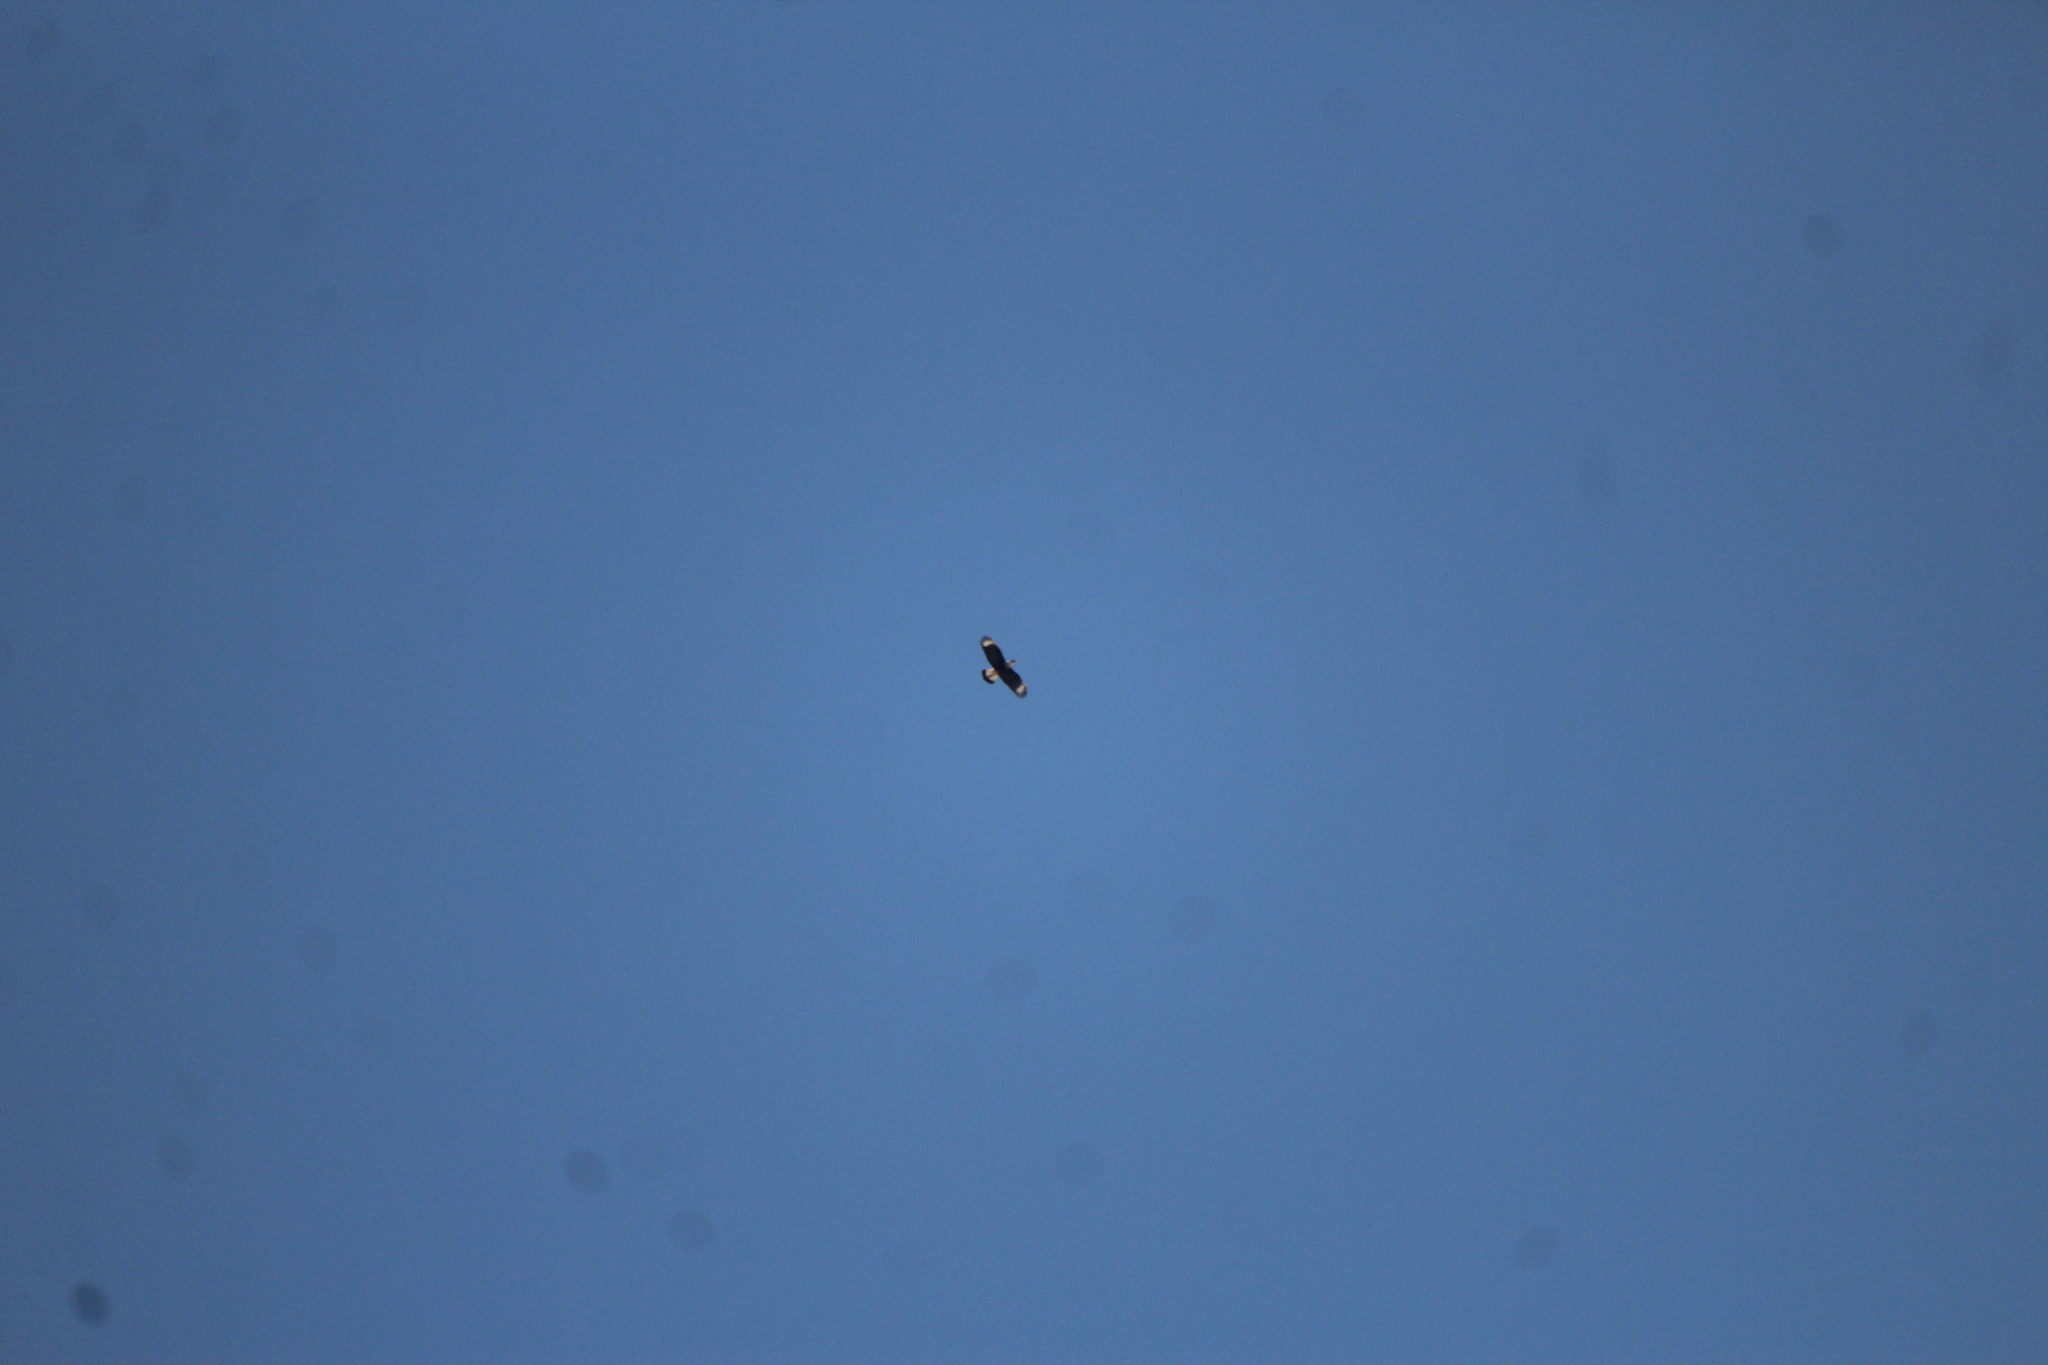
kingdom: Animalia
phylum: Chordata
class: Aves
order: Falconiformes
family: Falconidae
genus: Caracara
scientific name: Caracara plancus
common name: Southern caracara
